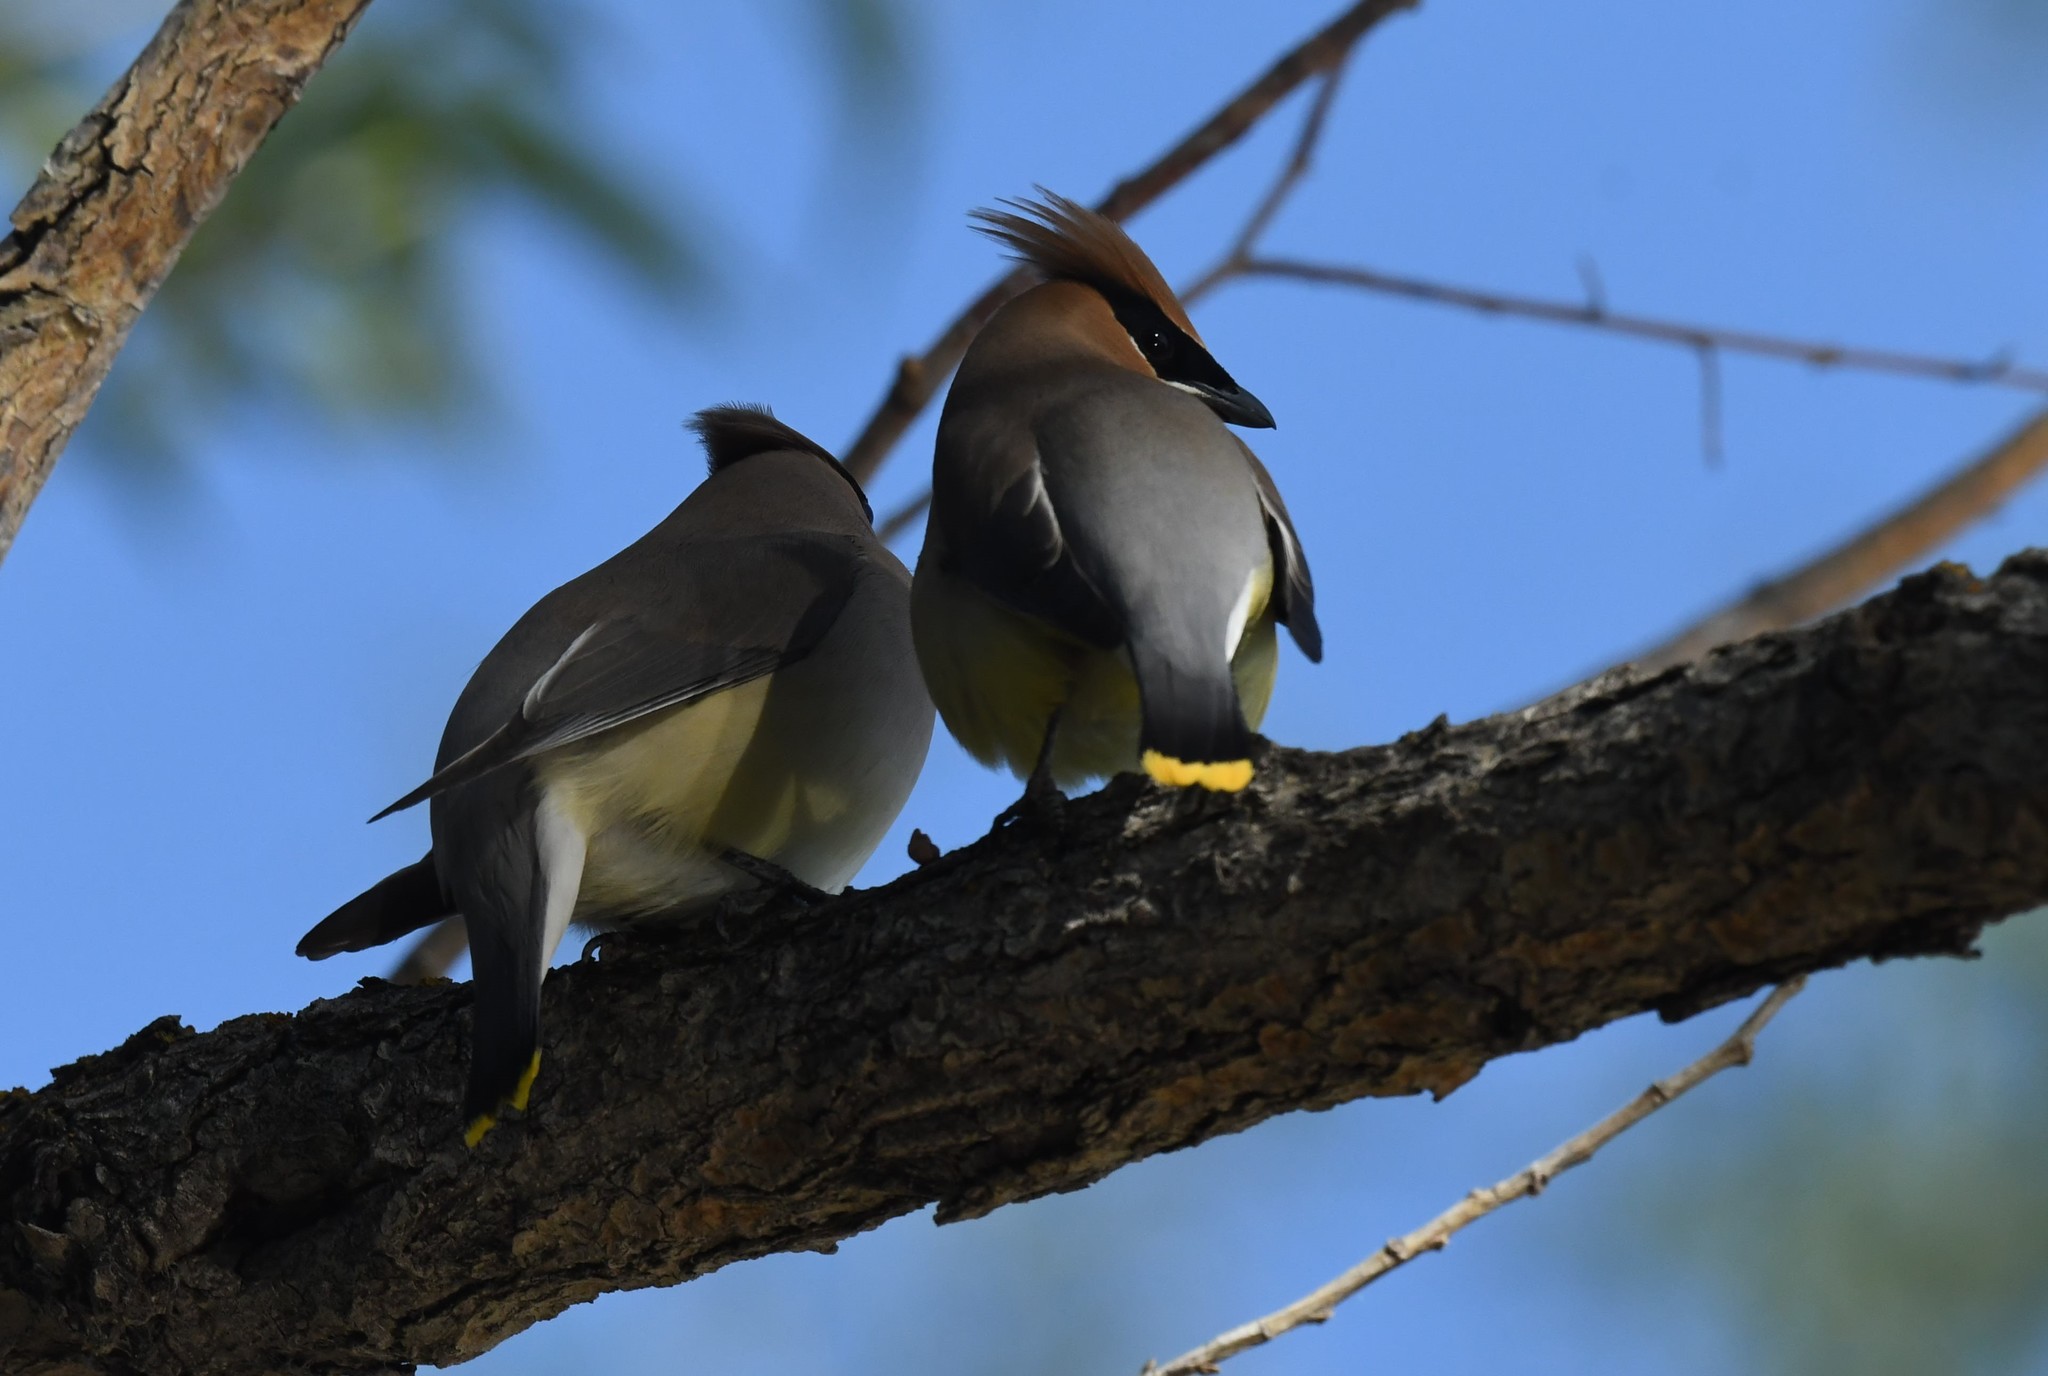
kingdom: Animalia
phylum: Chordata
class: Aves
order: Passeriformes
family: Bombycillidae
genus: Bombycilla
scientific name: Bombycilla cedrorum
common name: Cedar waxwing
